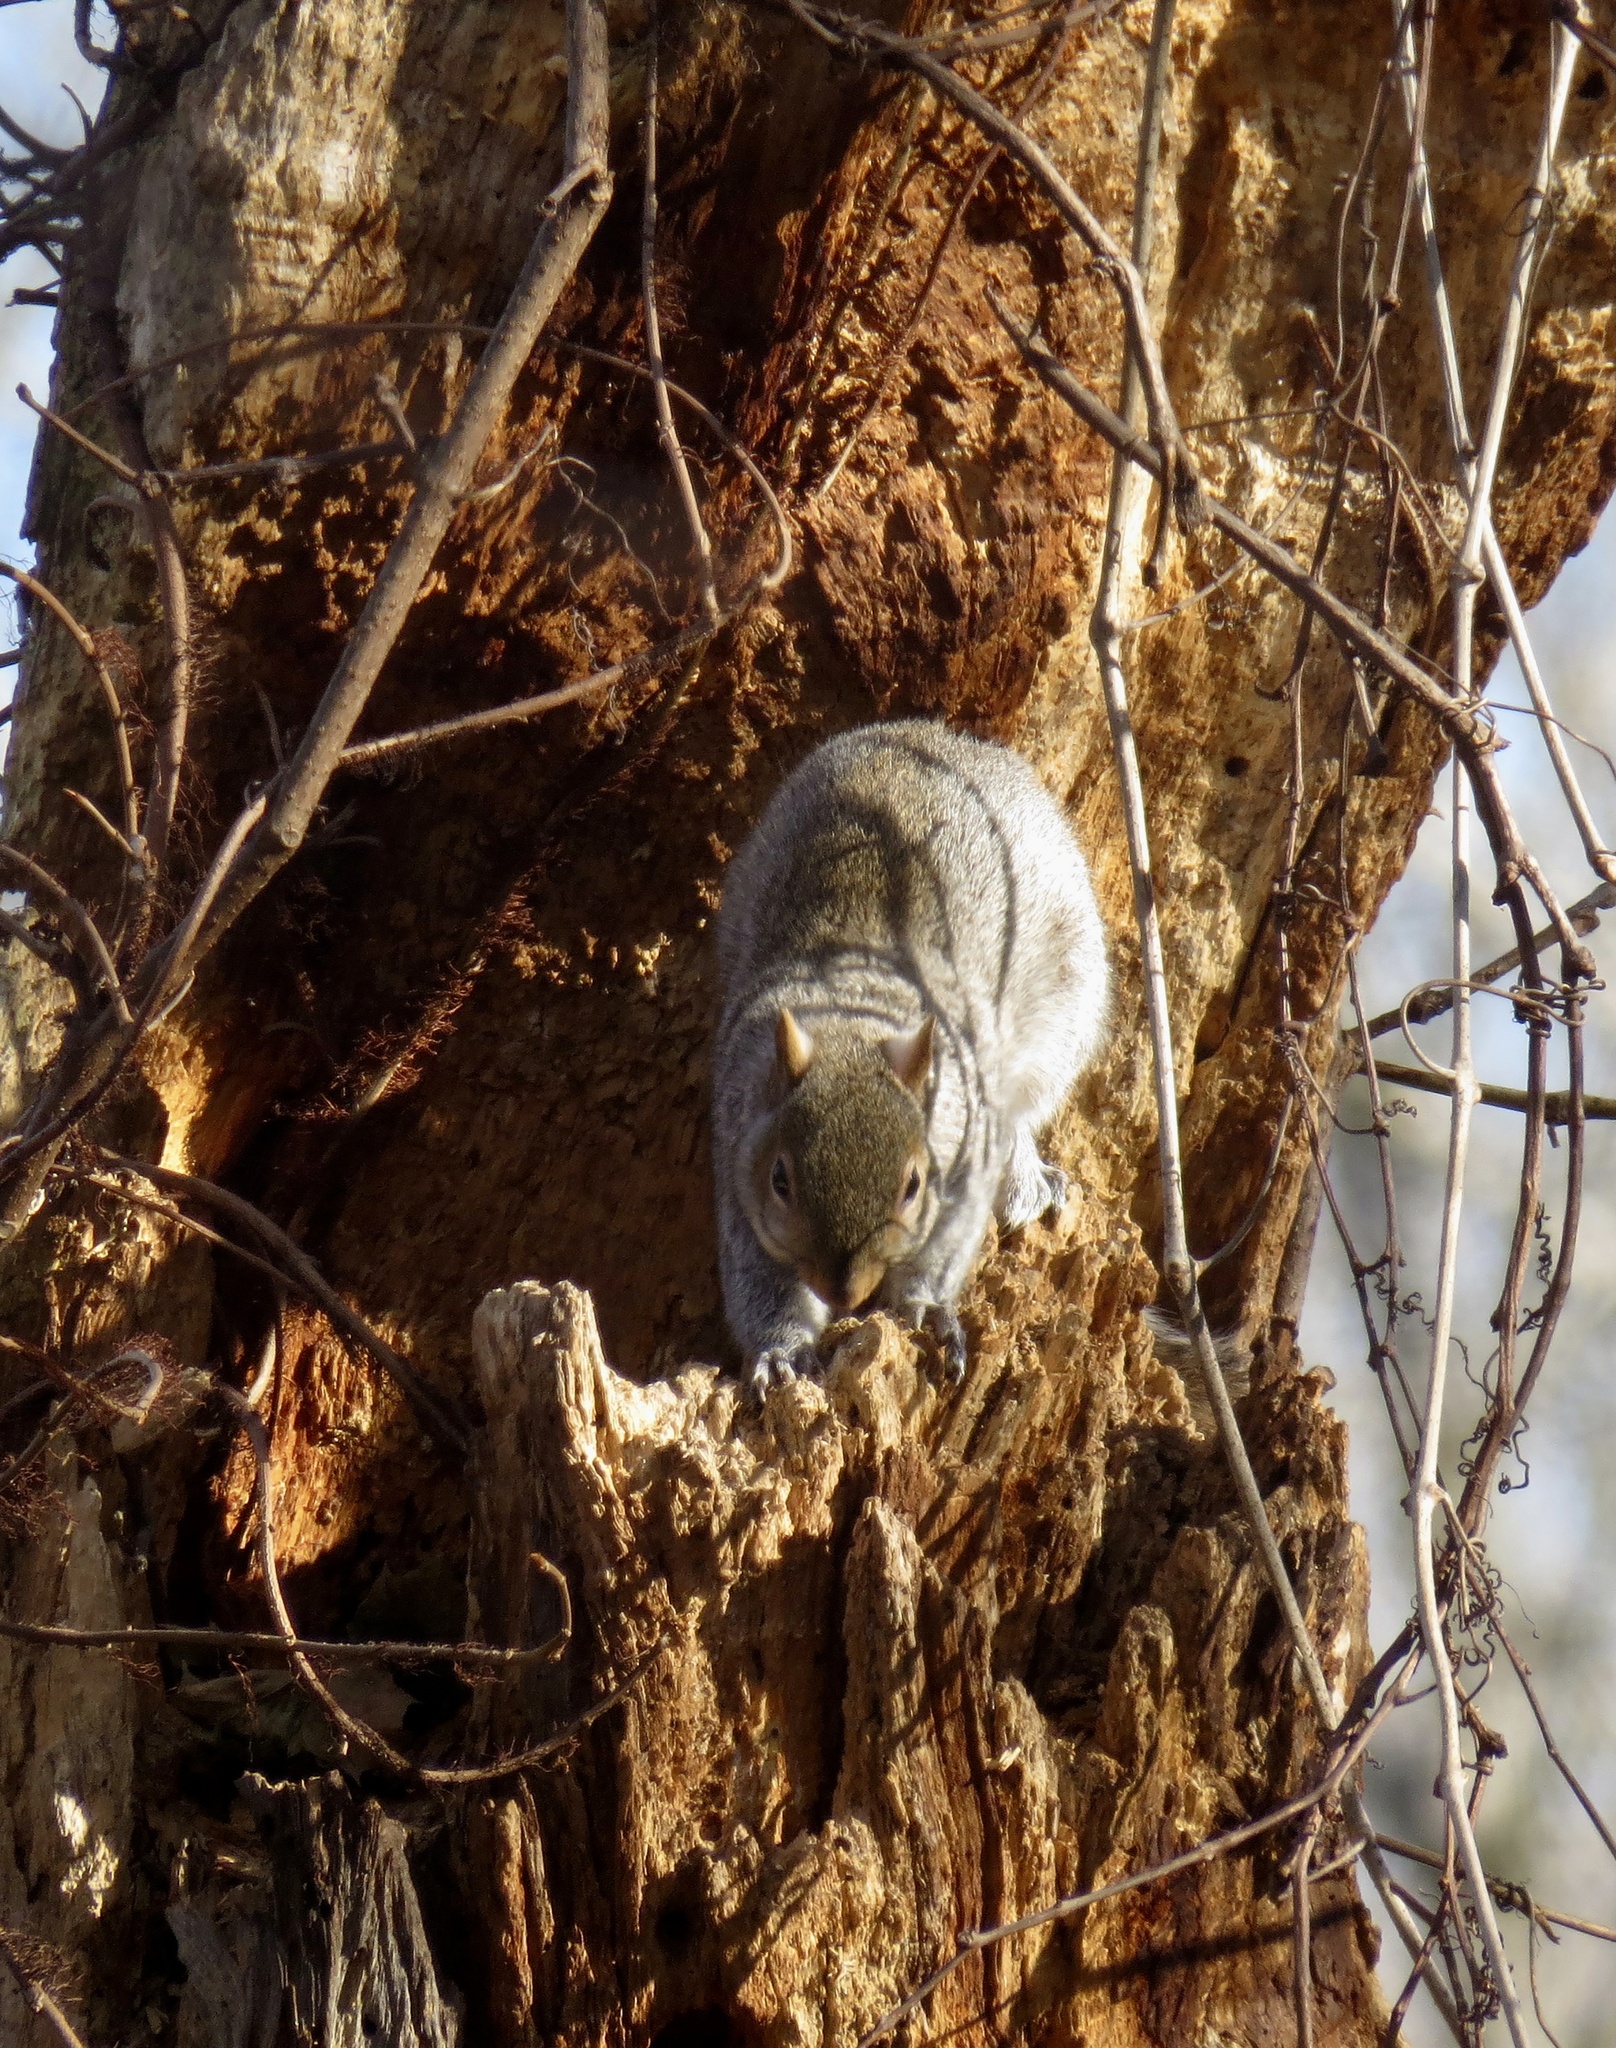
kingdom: Animalia
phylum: Chordata
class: Mammalia
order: Rodentia
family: Sciuridae
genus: Sciurus
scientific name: Sciurus carolinensis
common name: Eastern gray squirrel
